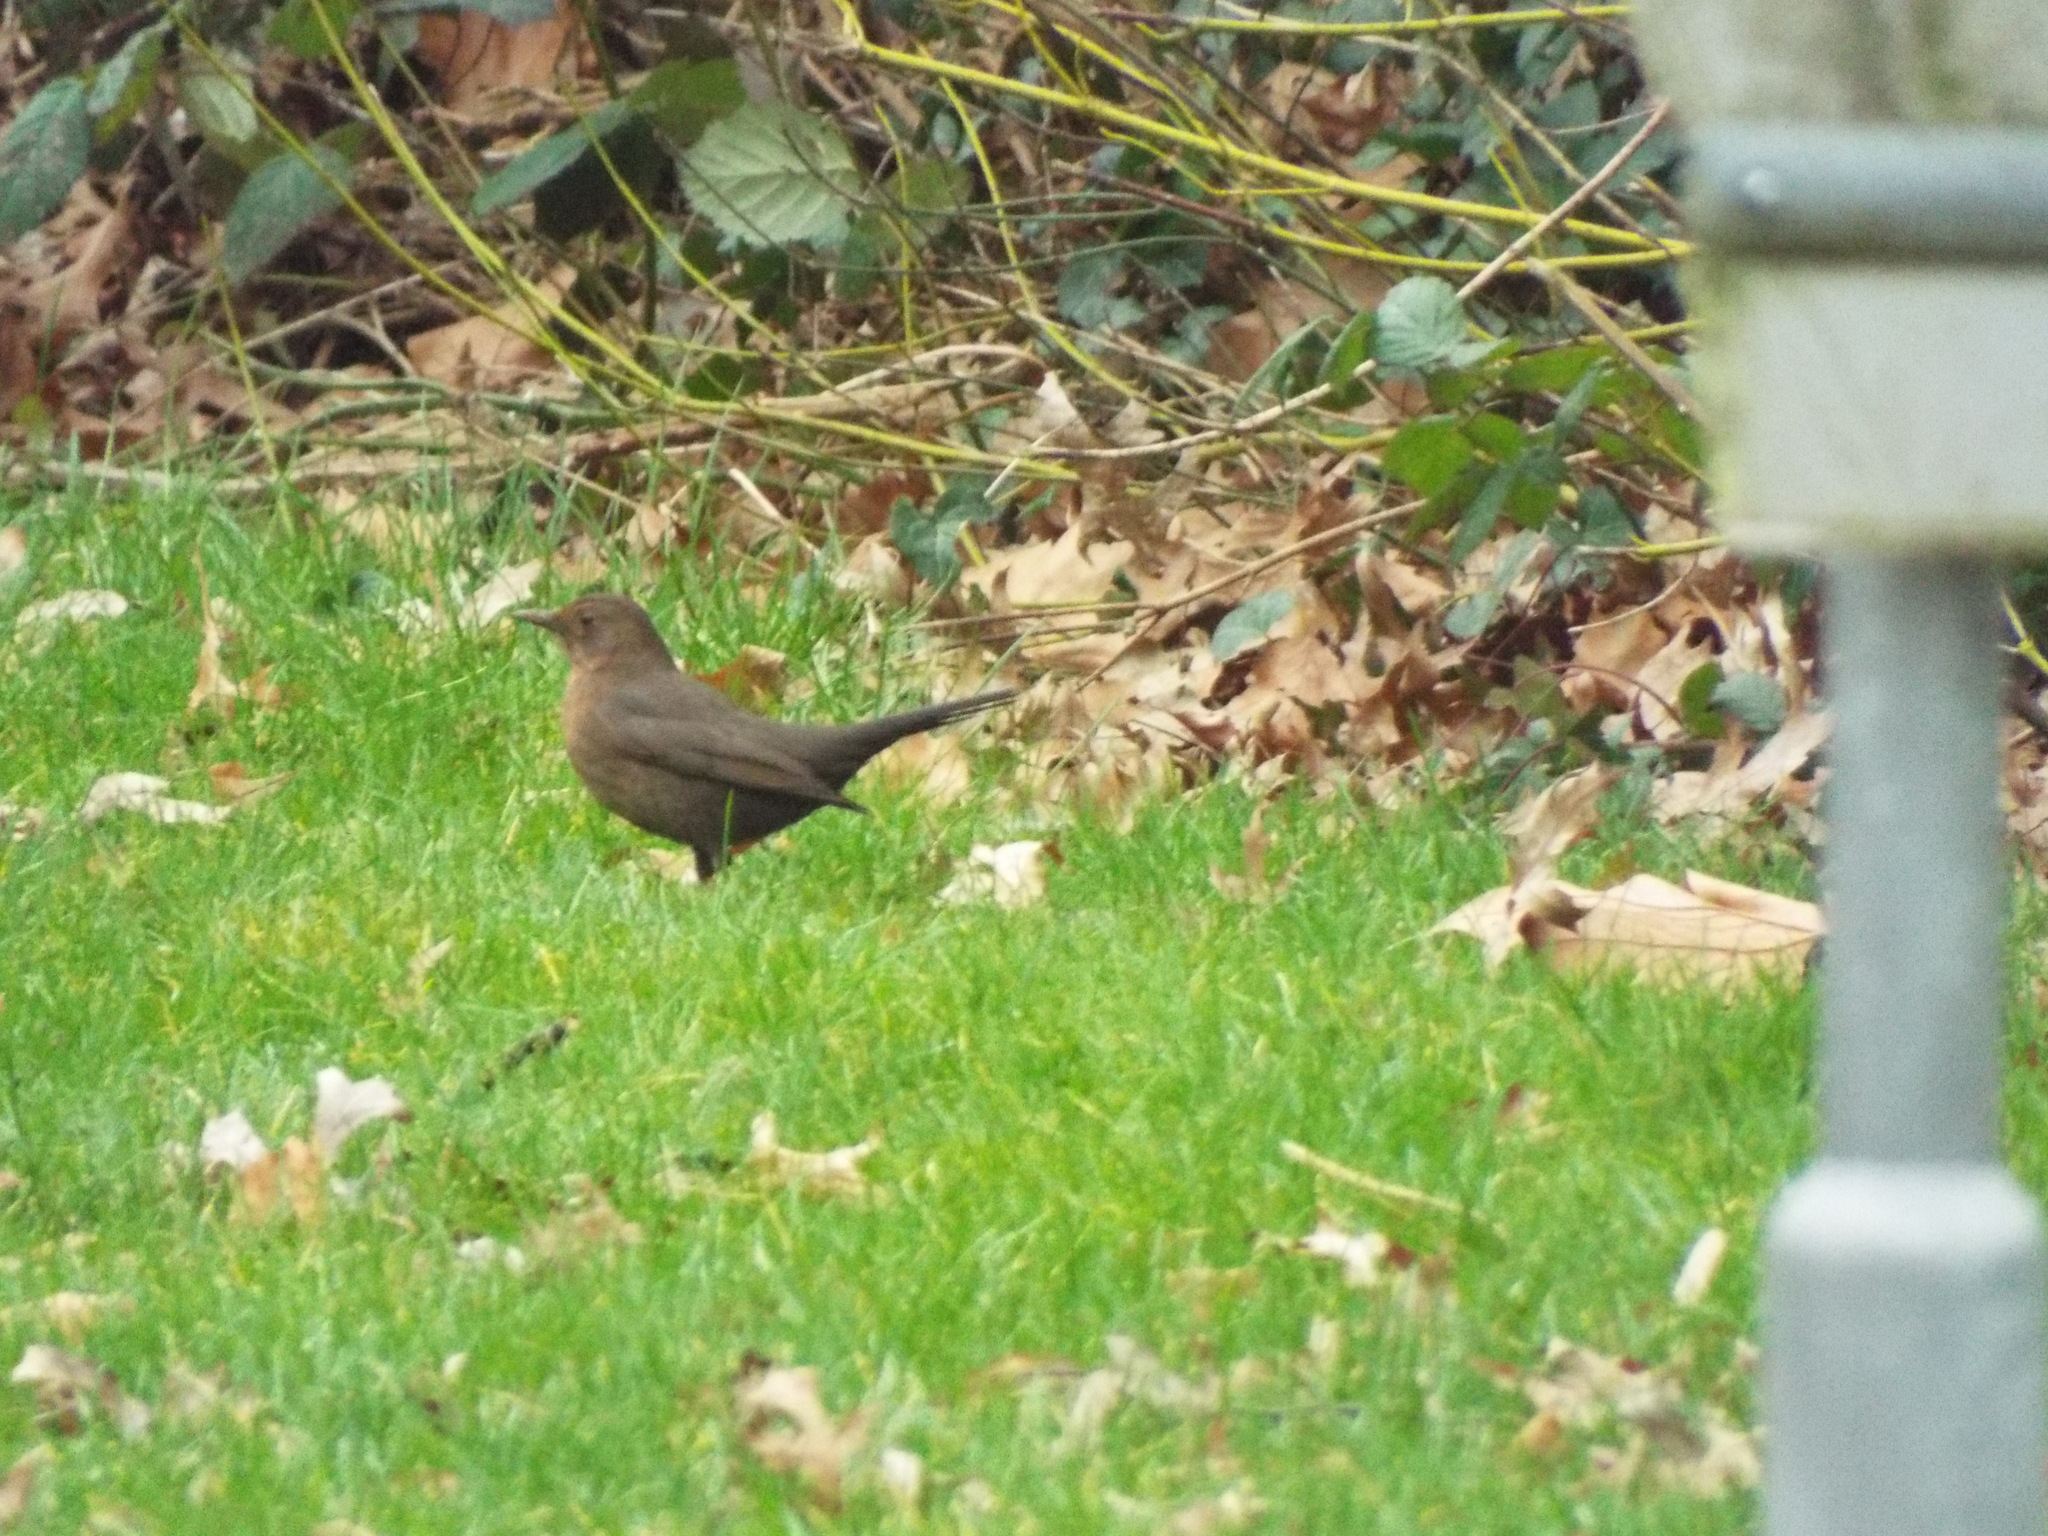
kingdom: Animalia
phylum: Chordata
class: Aves
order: Passeriformes
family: Turdidae
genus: Turdus
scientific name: Turdus merula
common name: Common blackbird
